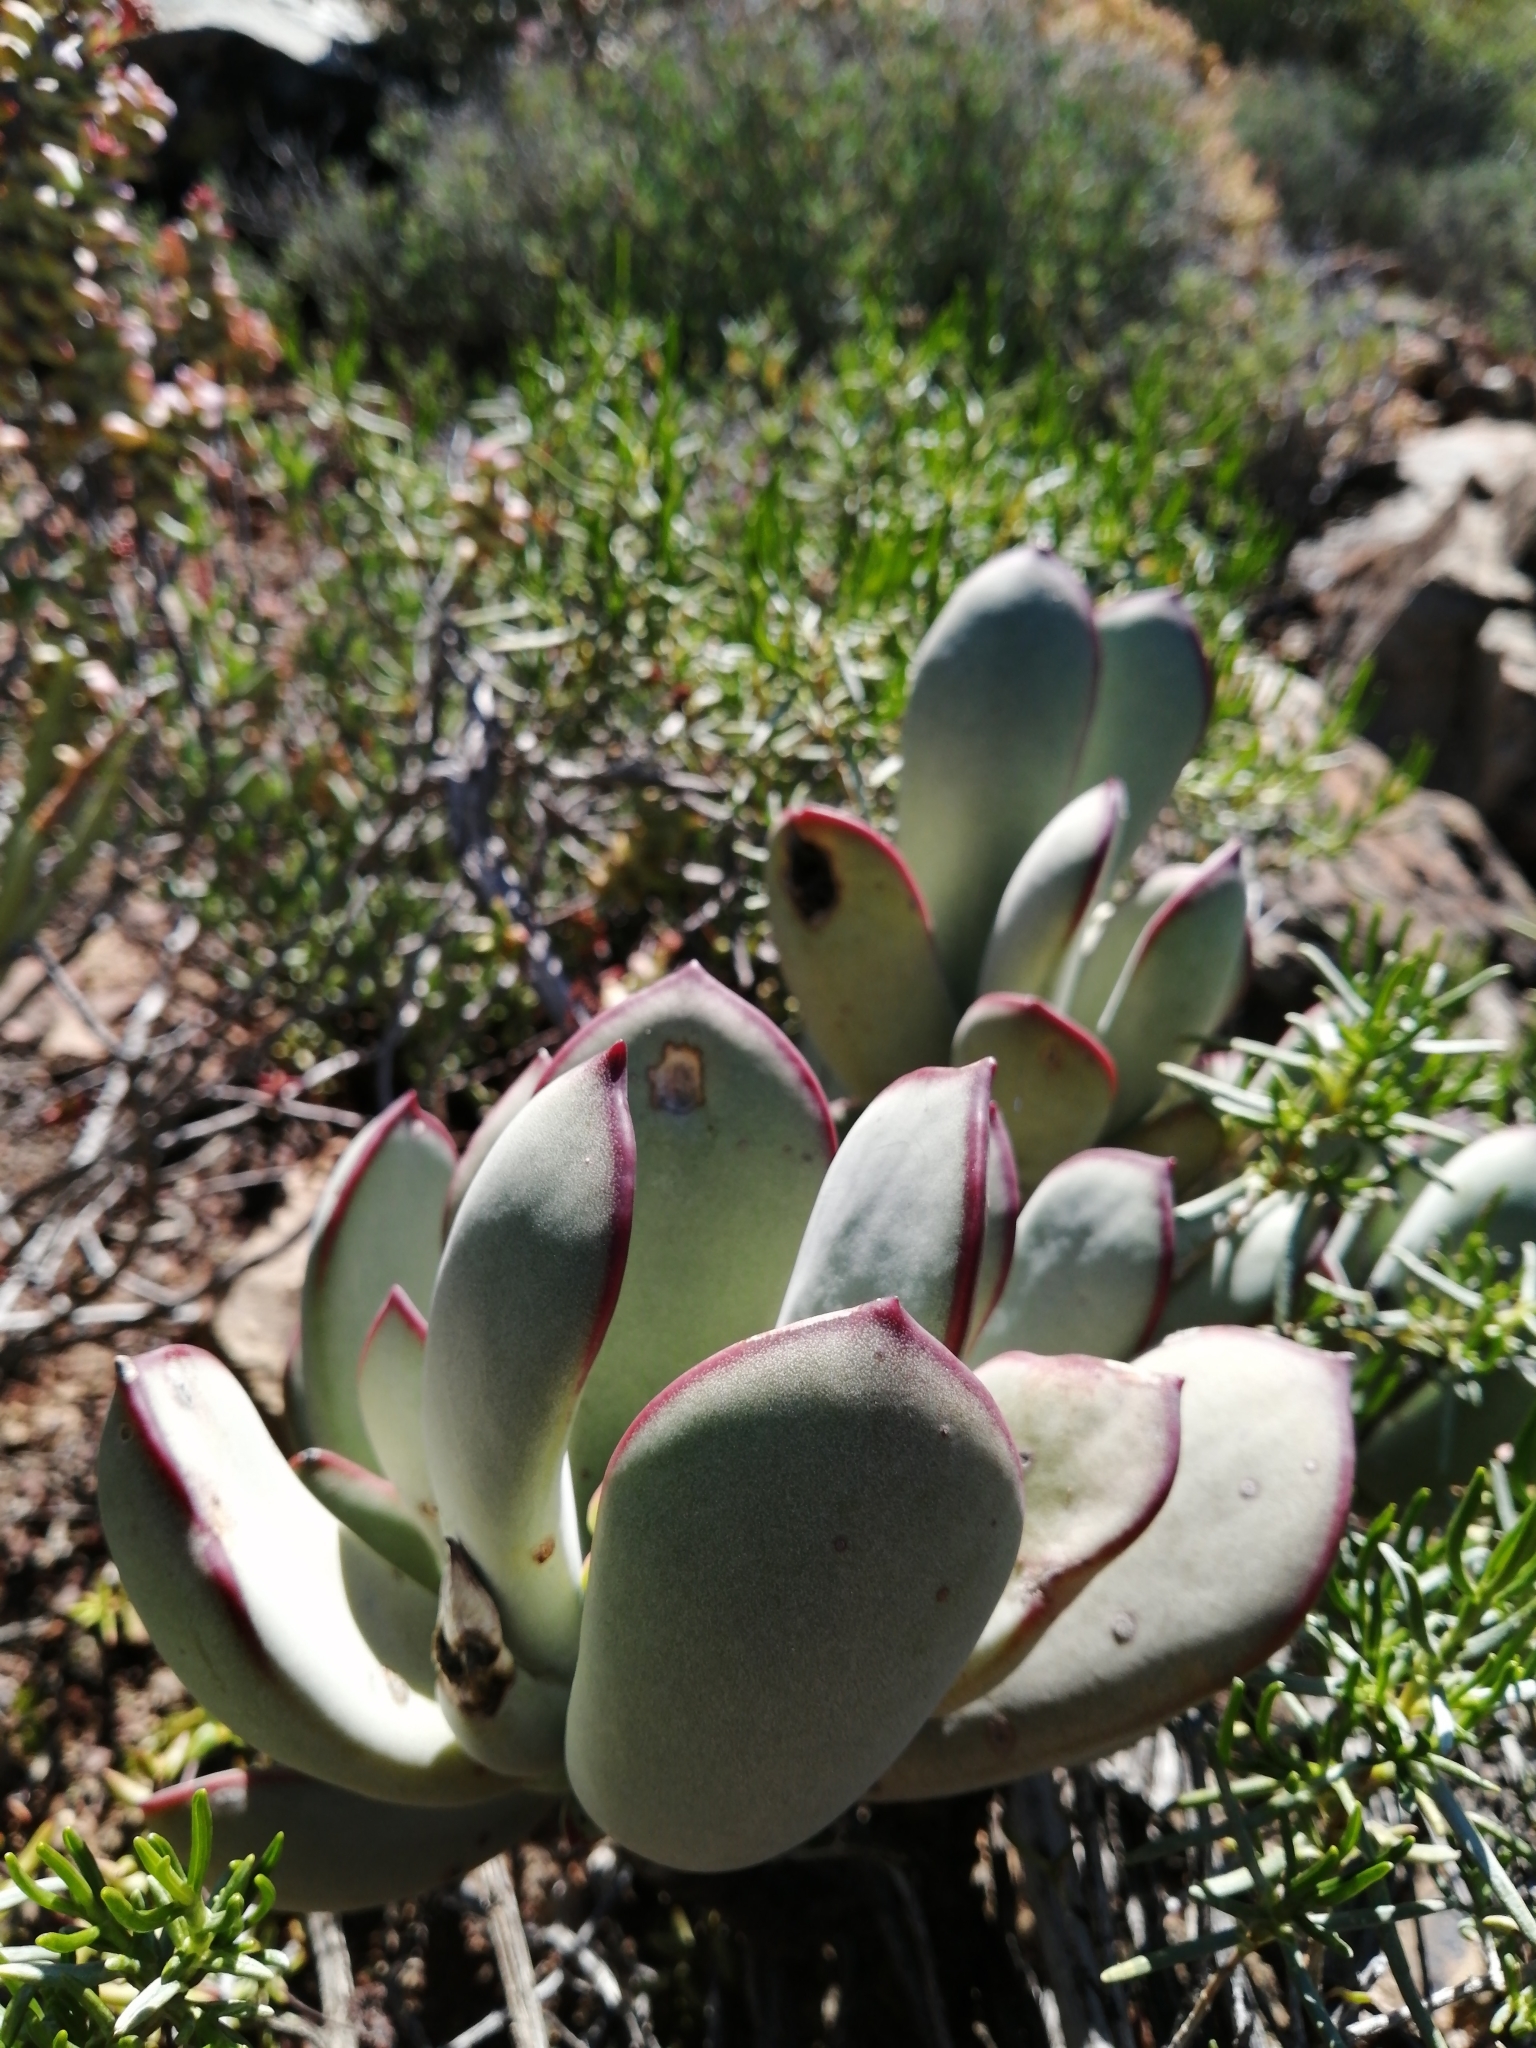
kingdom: Plantae
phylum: Tracheophyta
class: Magnoliopsida
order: Saxifragales
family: Crassulaceae
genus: Cotyledon
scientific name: Cotyledon orbiculata
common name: Pig's ear
